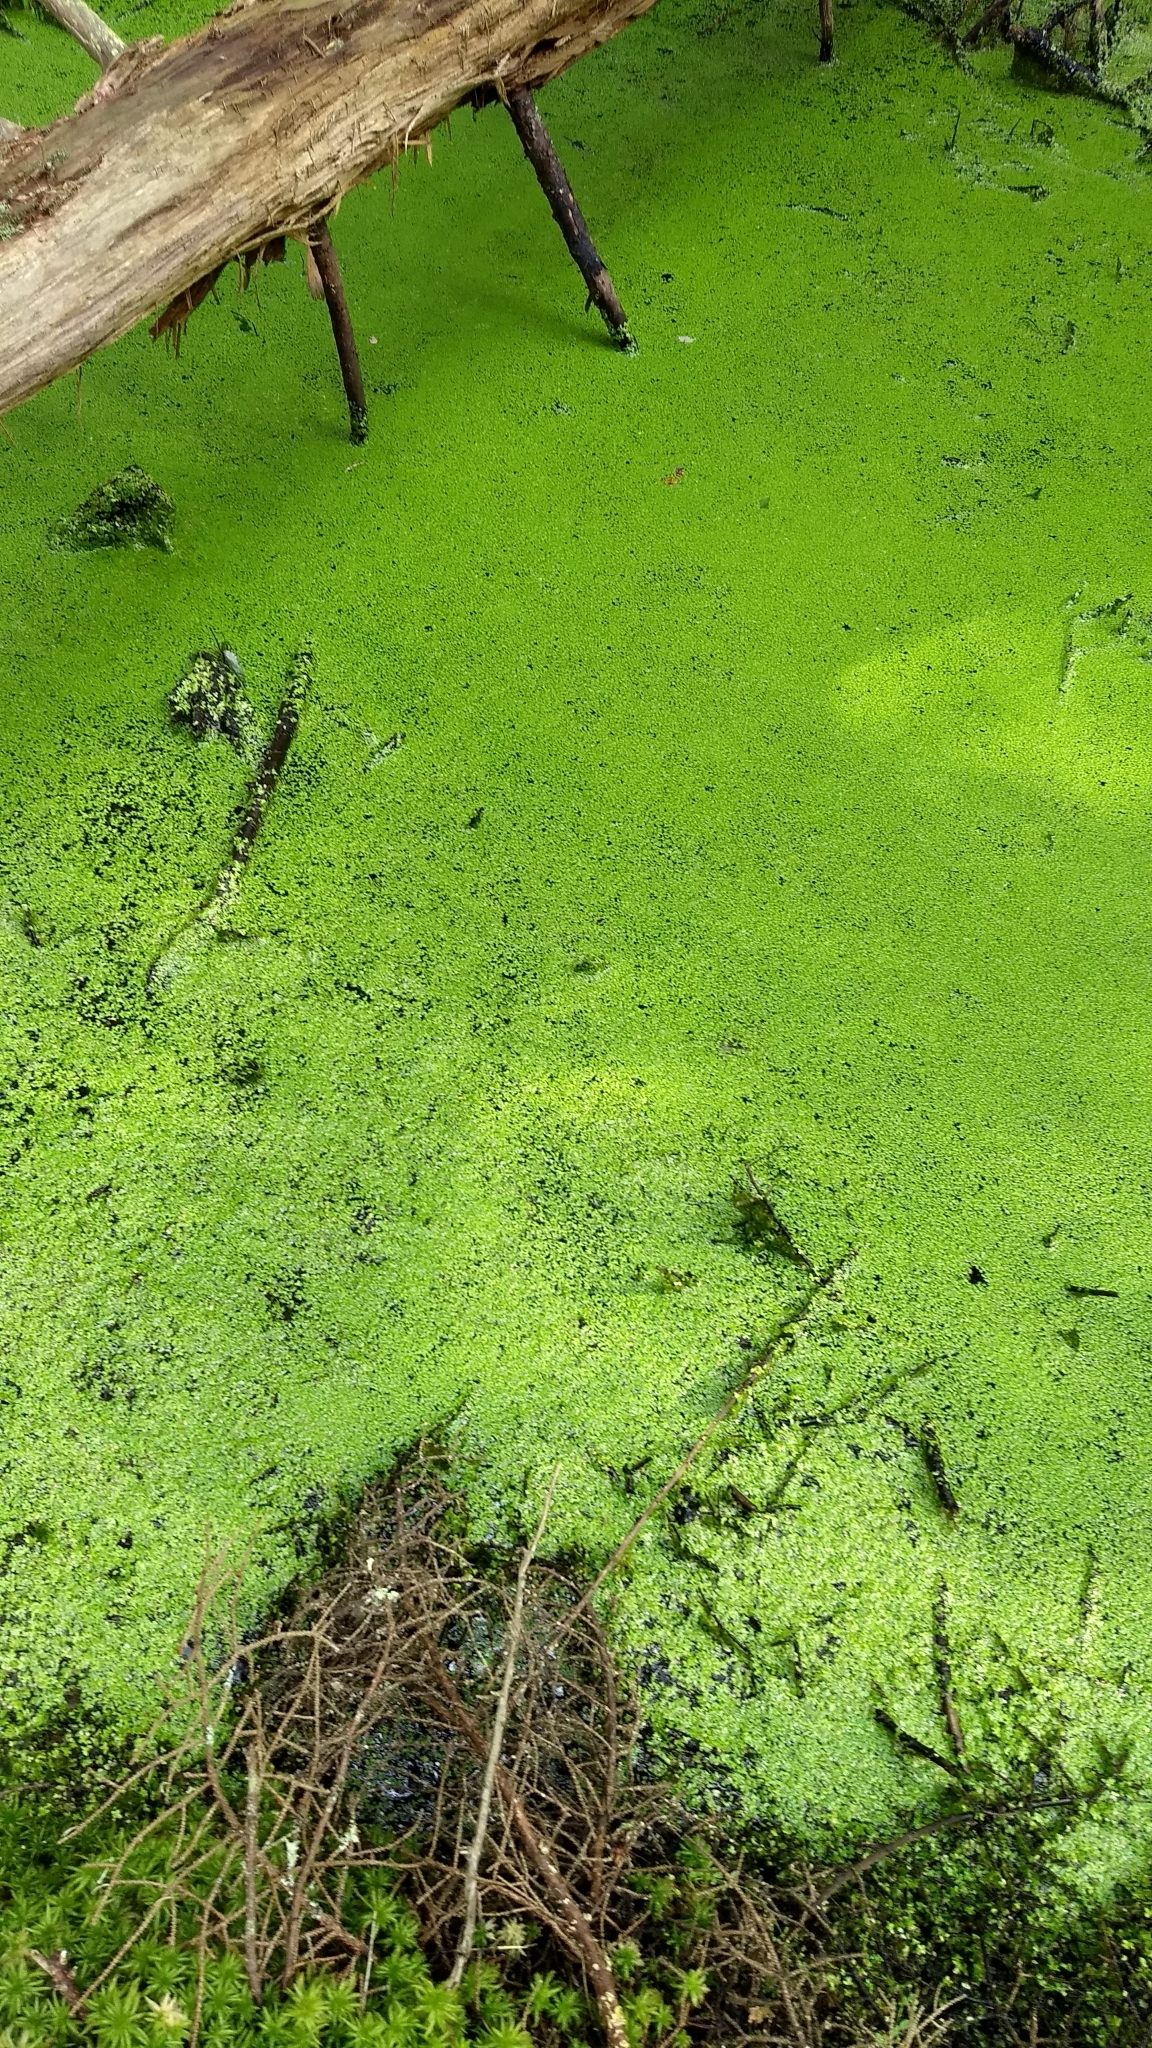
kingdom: Plantae
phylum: Tracheophyta
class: Liliopsida
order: Alismatales
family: Araceae
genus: Lemna
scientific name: Lemna minor
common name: Common duckweed
